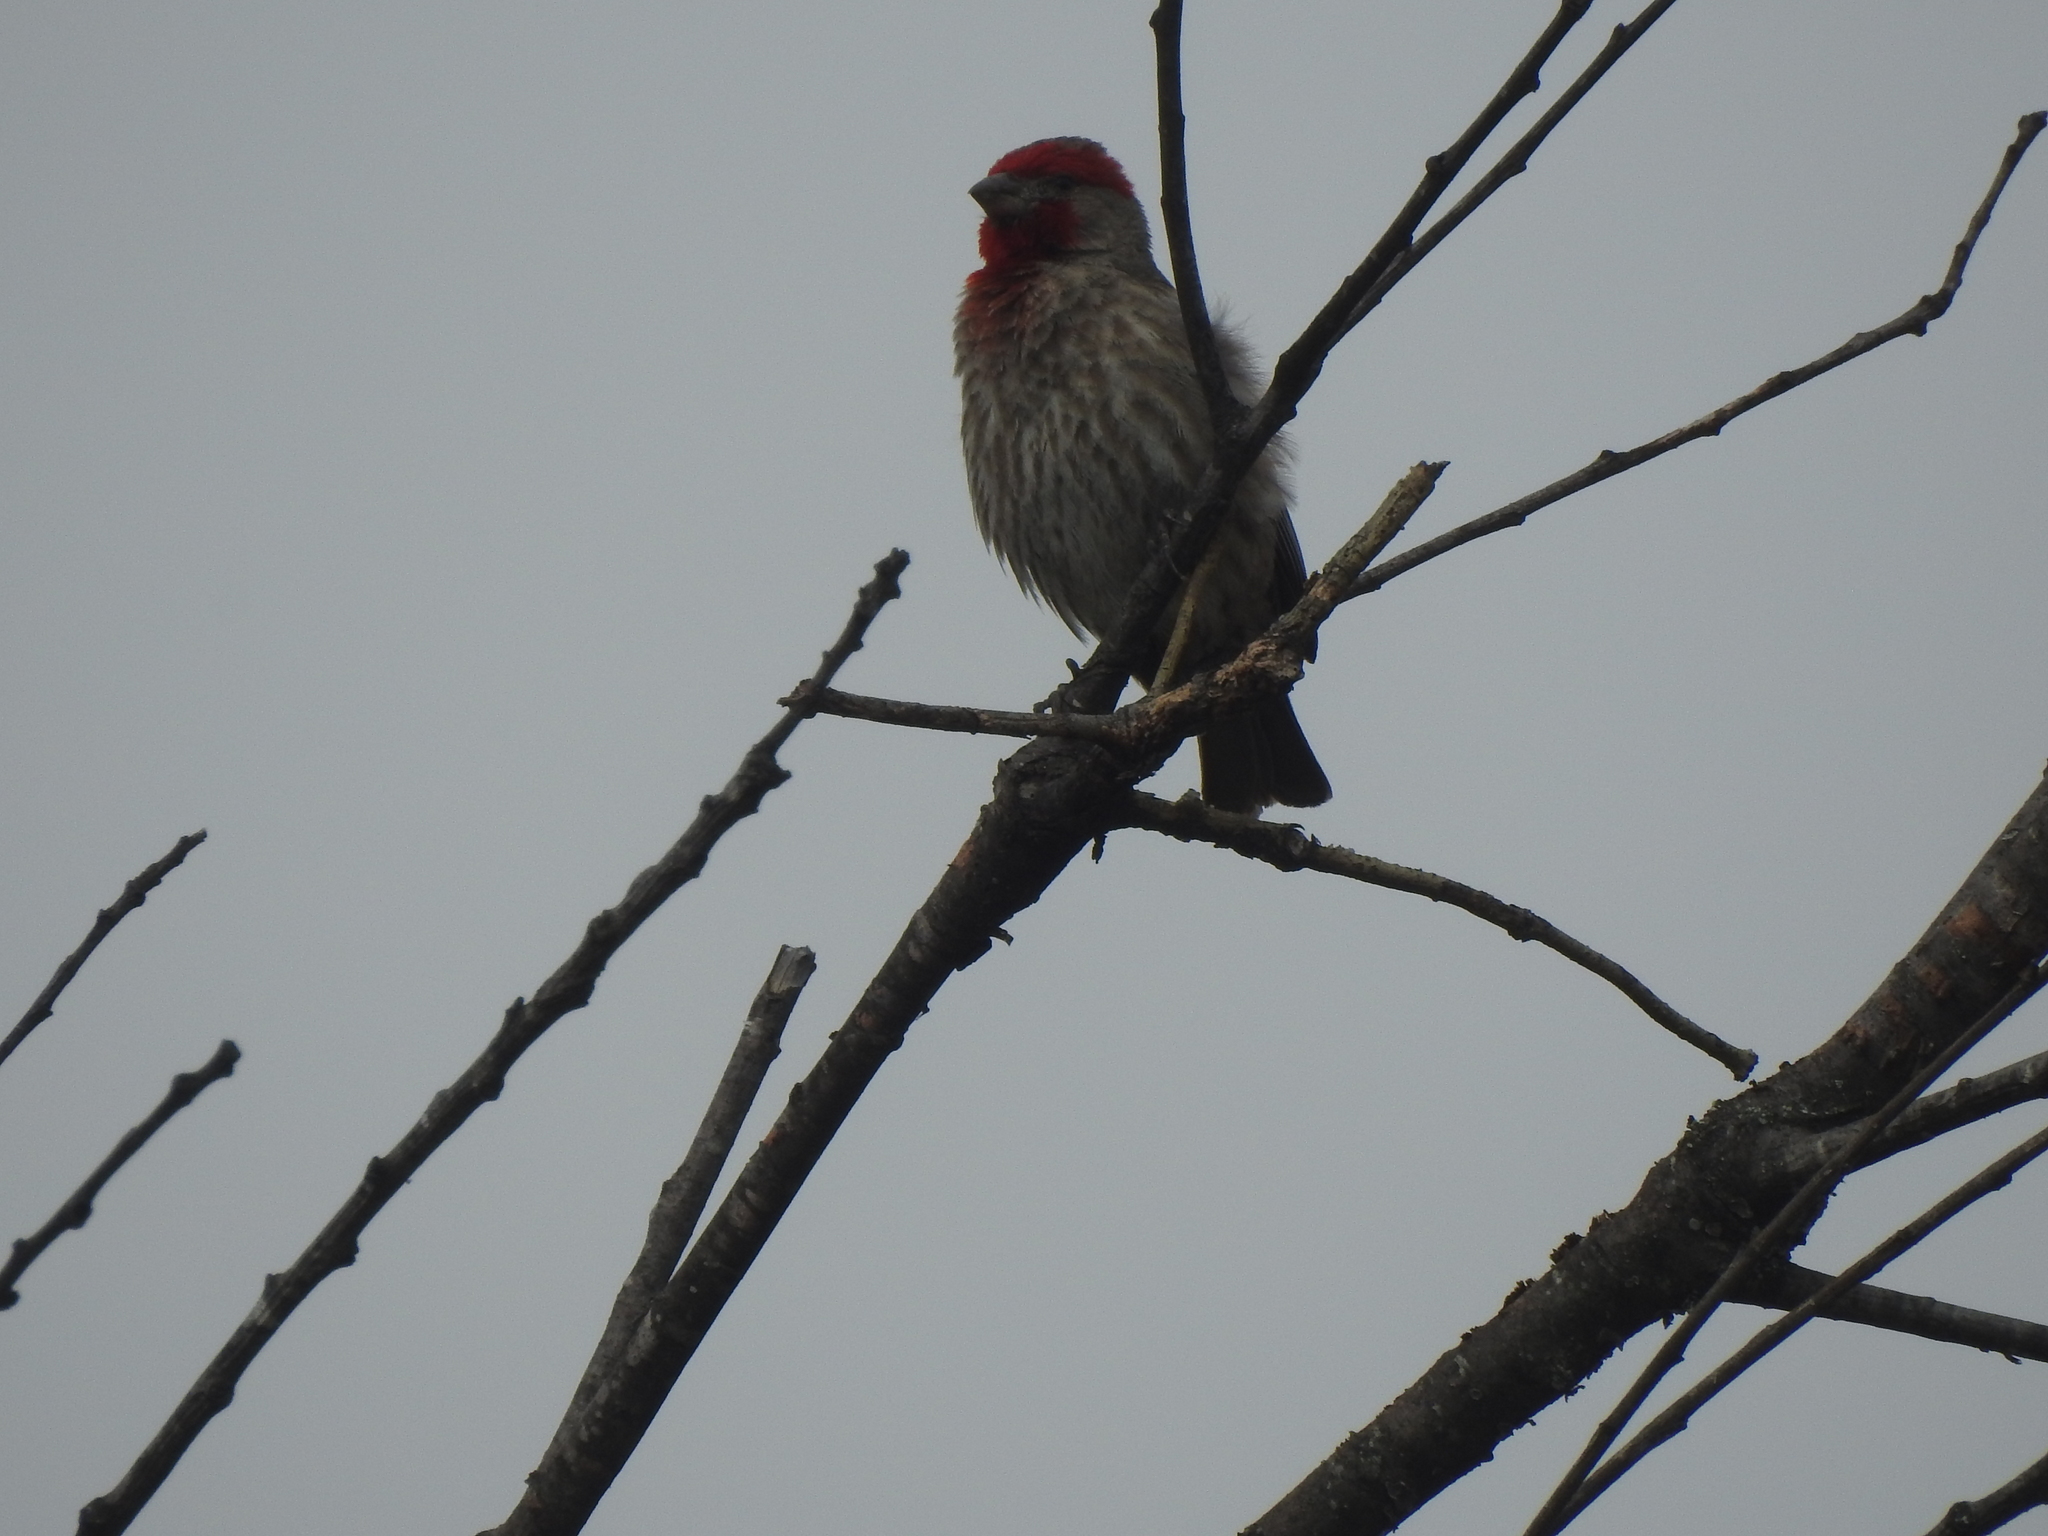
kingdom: Animalia
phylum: Chordata
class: Aves
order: Passeriformes
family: Fringillidae
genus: Haemorhous
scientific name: Haemorhous mexicanus
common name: House finch
